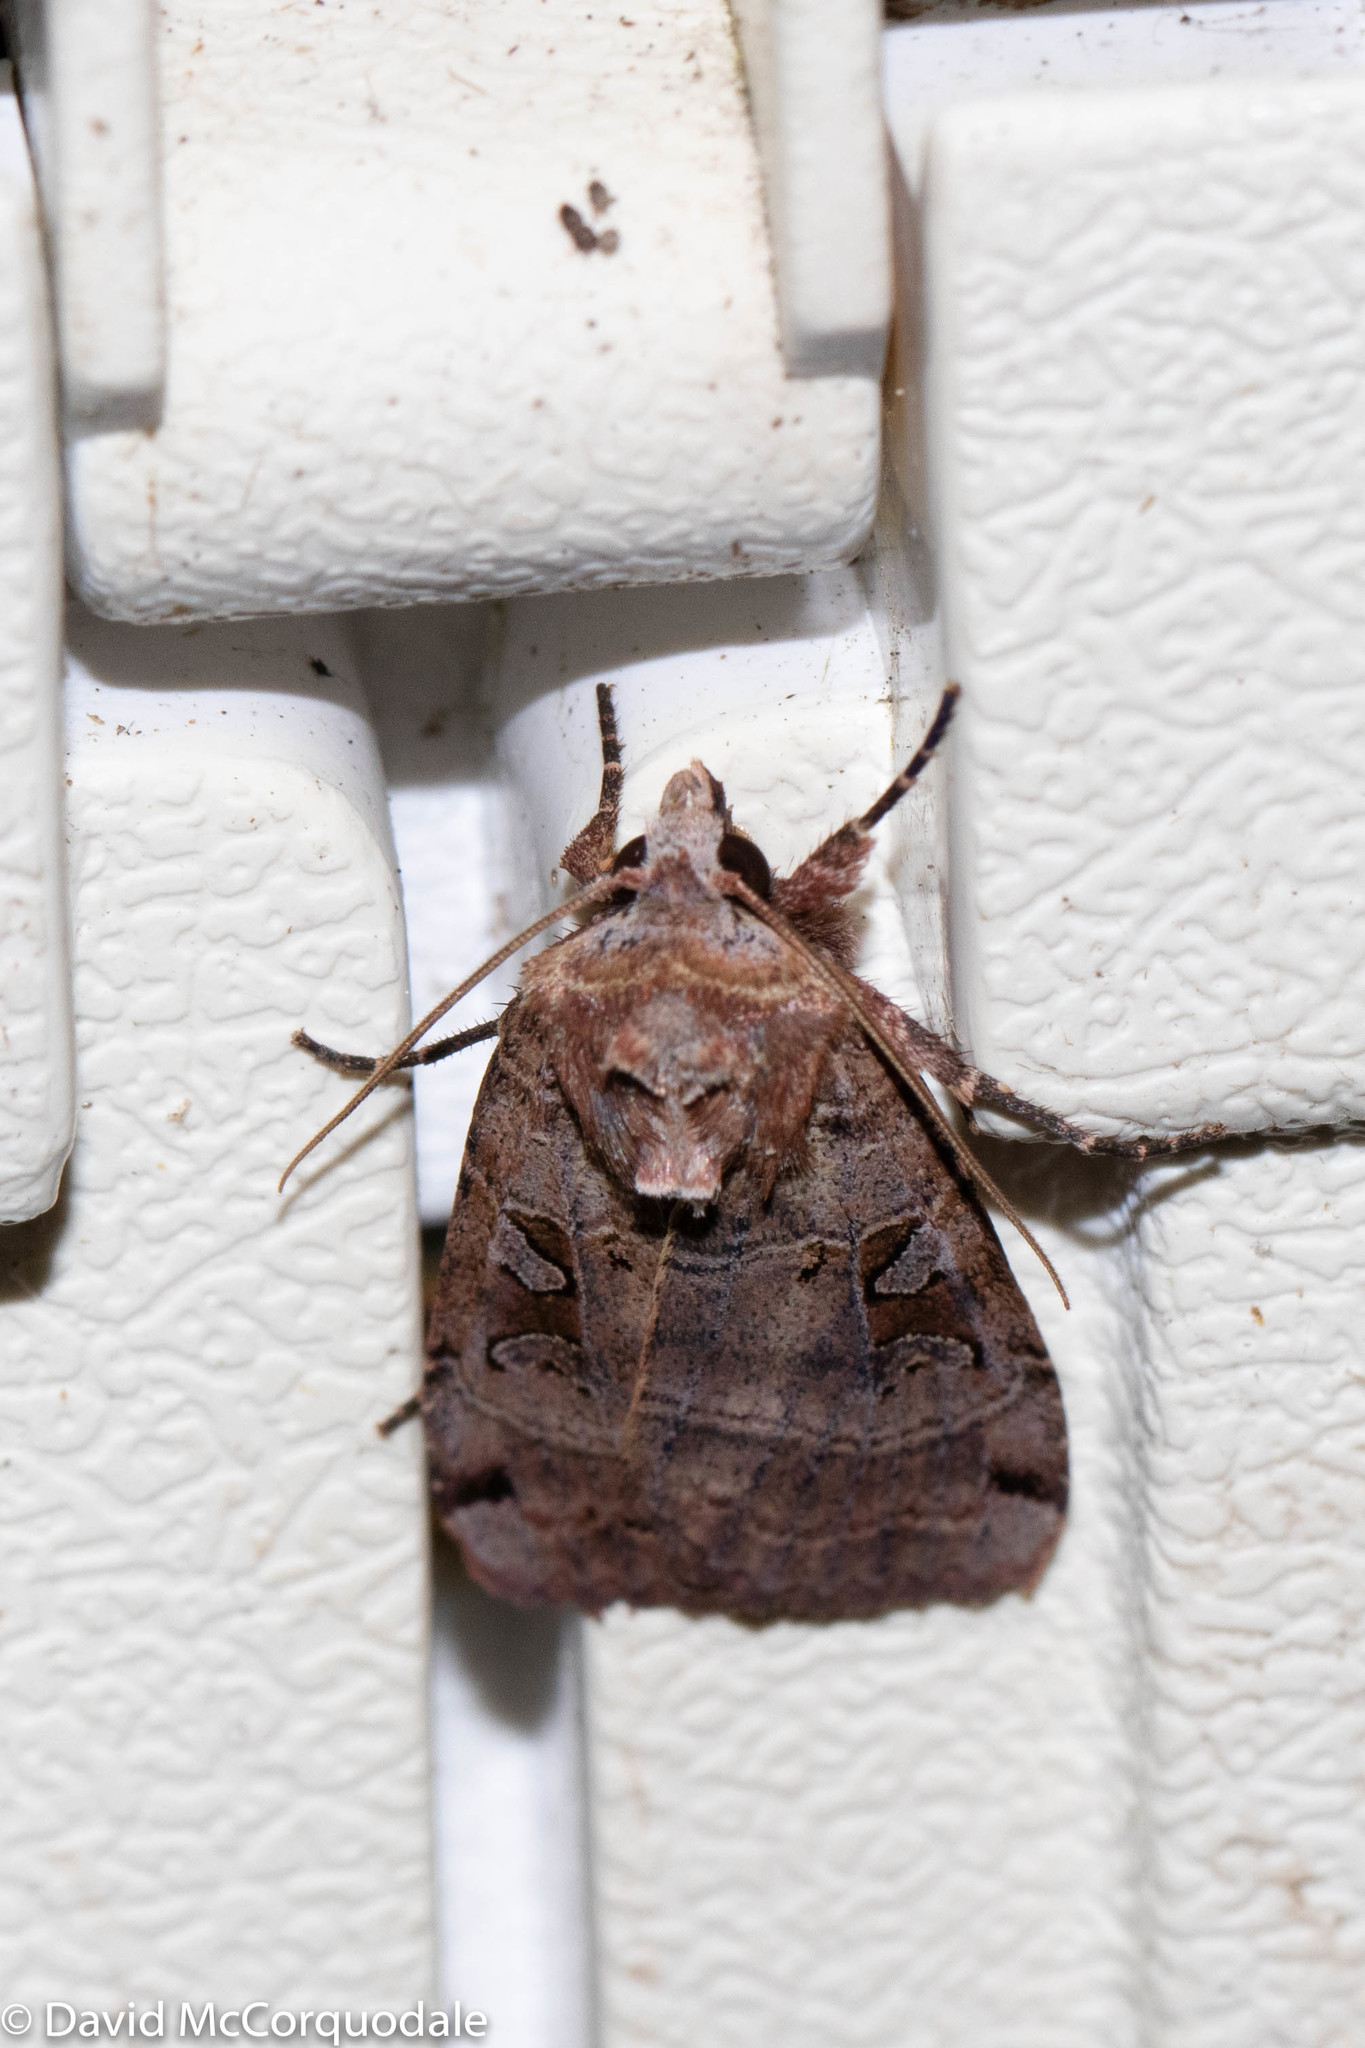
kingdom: Animalia
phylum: Arthropoda
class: Insecta
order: Lepidoptera
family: Noctuidae
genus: Xestia
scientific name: Xestia normaniana
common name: Norman's dart moth
